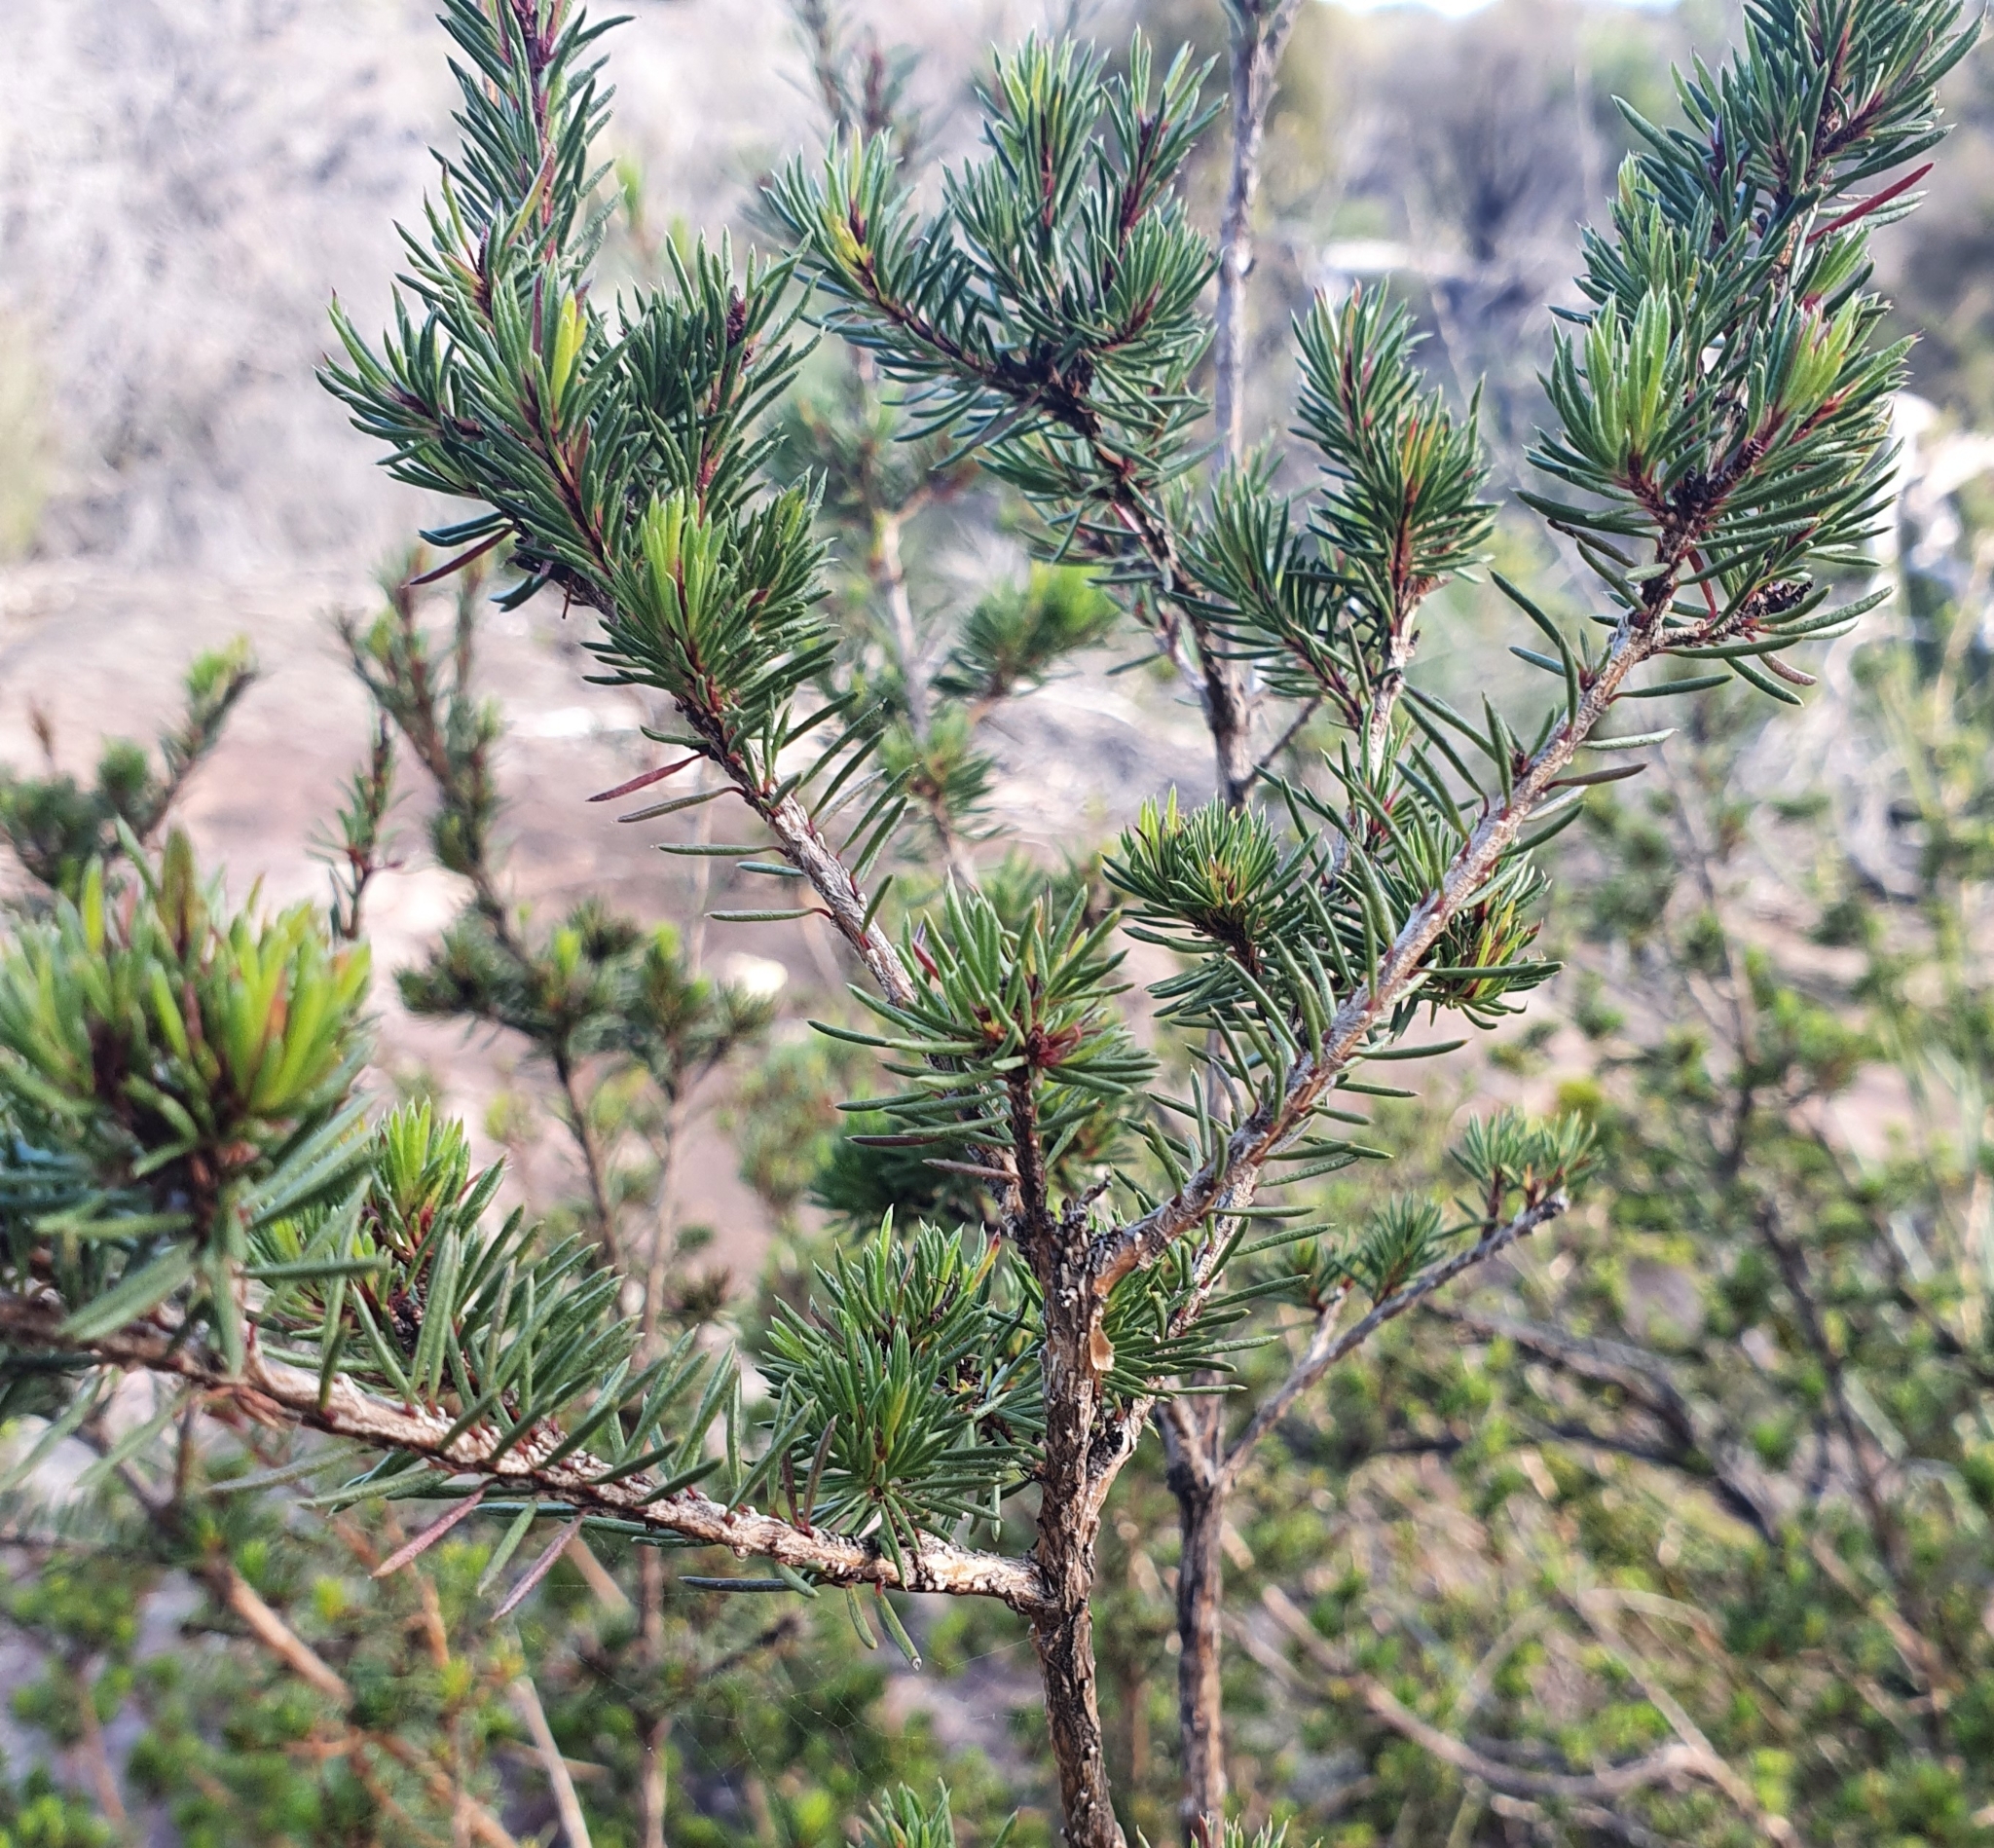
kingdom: Plantae
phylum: Tracheophyta
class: Magnoliopsida
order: Myrtales
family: Myrtaceae
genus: Darwinia
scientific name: Darwinia fascicularis
